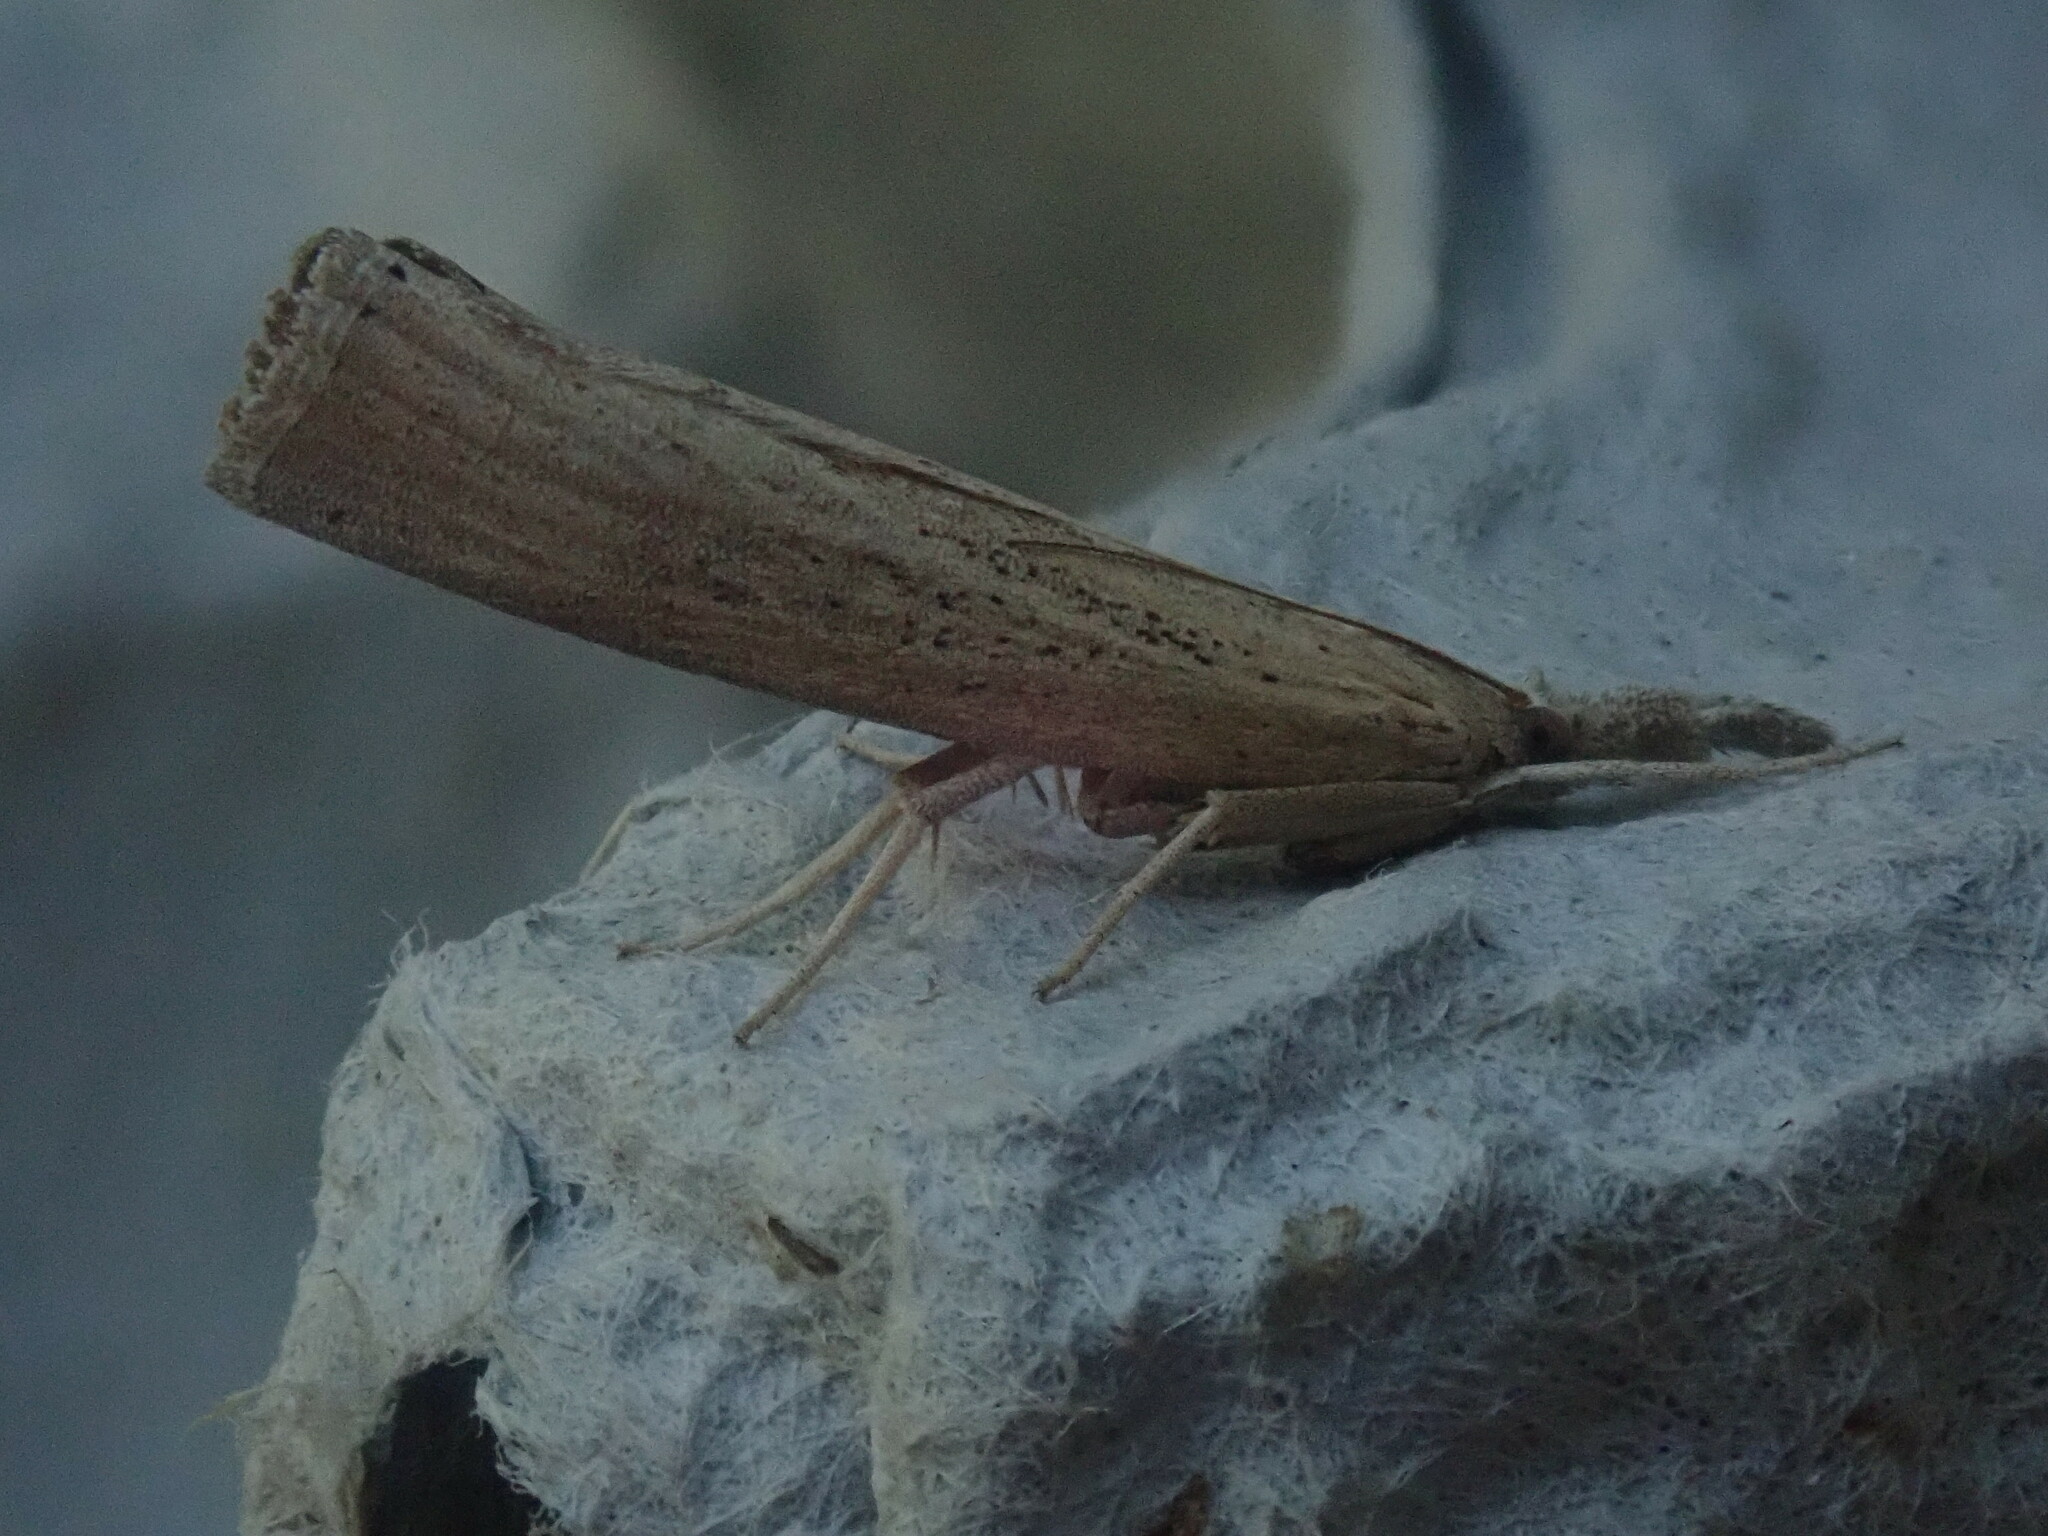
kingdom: Animalia
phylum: Arthropoda
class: Insecta
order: Lepidoptera
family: Crambidae
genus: Fissicrambus
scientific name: Fissicrambus mutabilis
